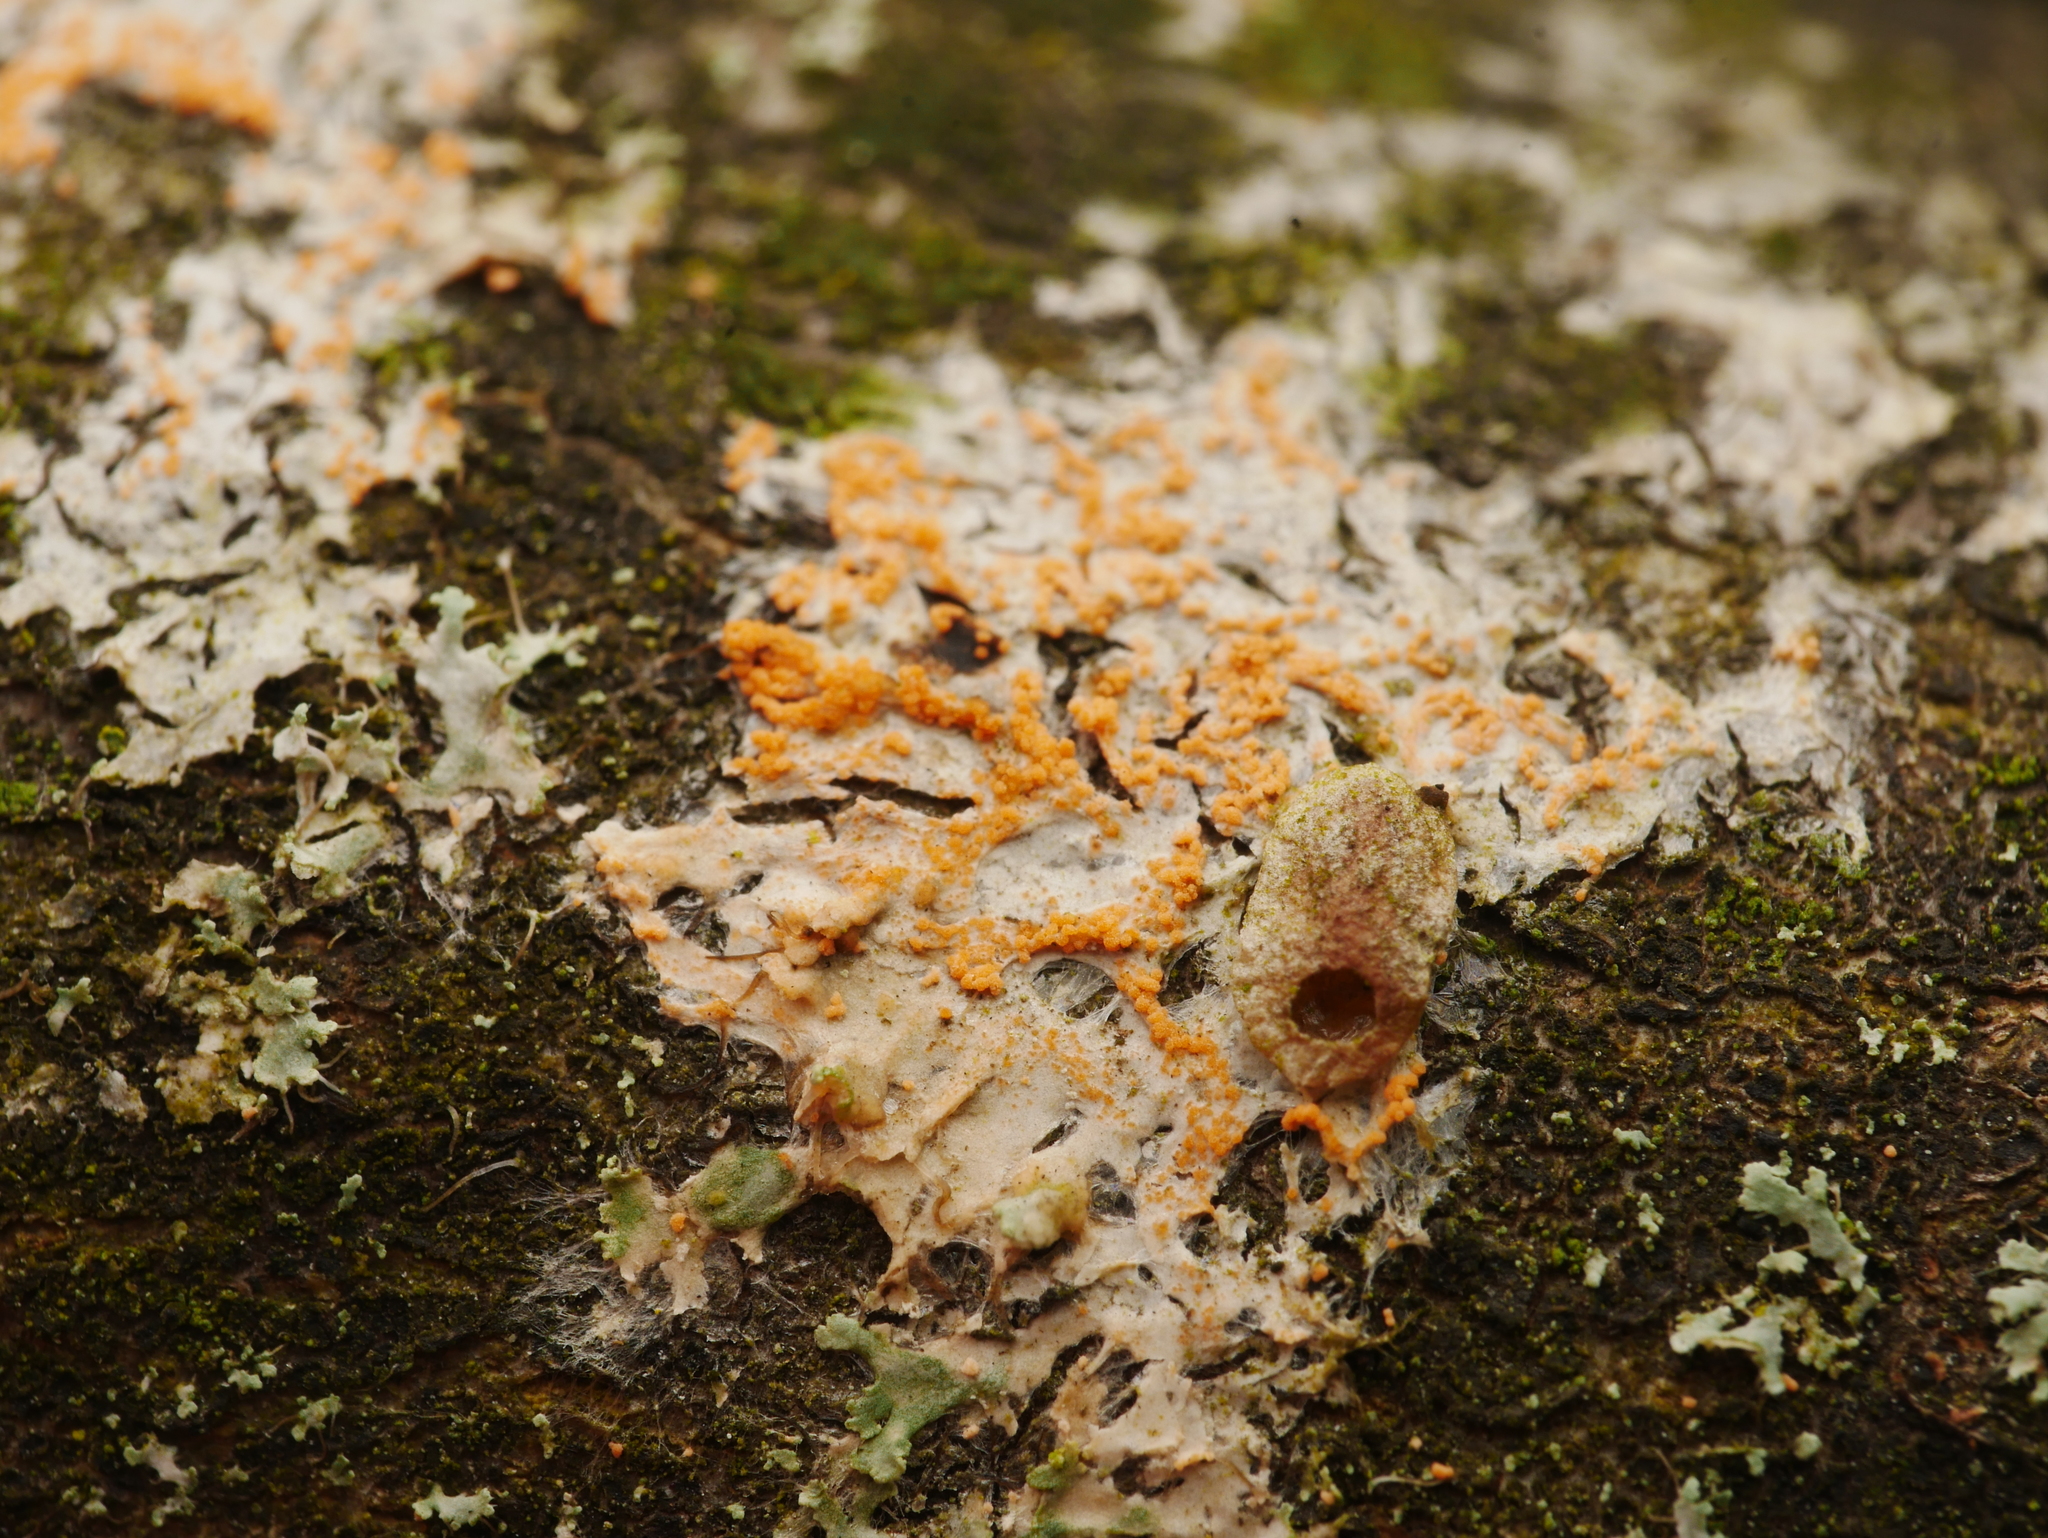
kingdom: Fungi
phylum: Basidiomycota
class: Agaricomycetes
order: Corticiales
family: Corticiaceae
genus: Erythricium
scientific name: Erythricium aurantiacum
